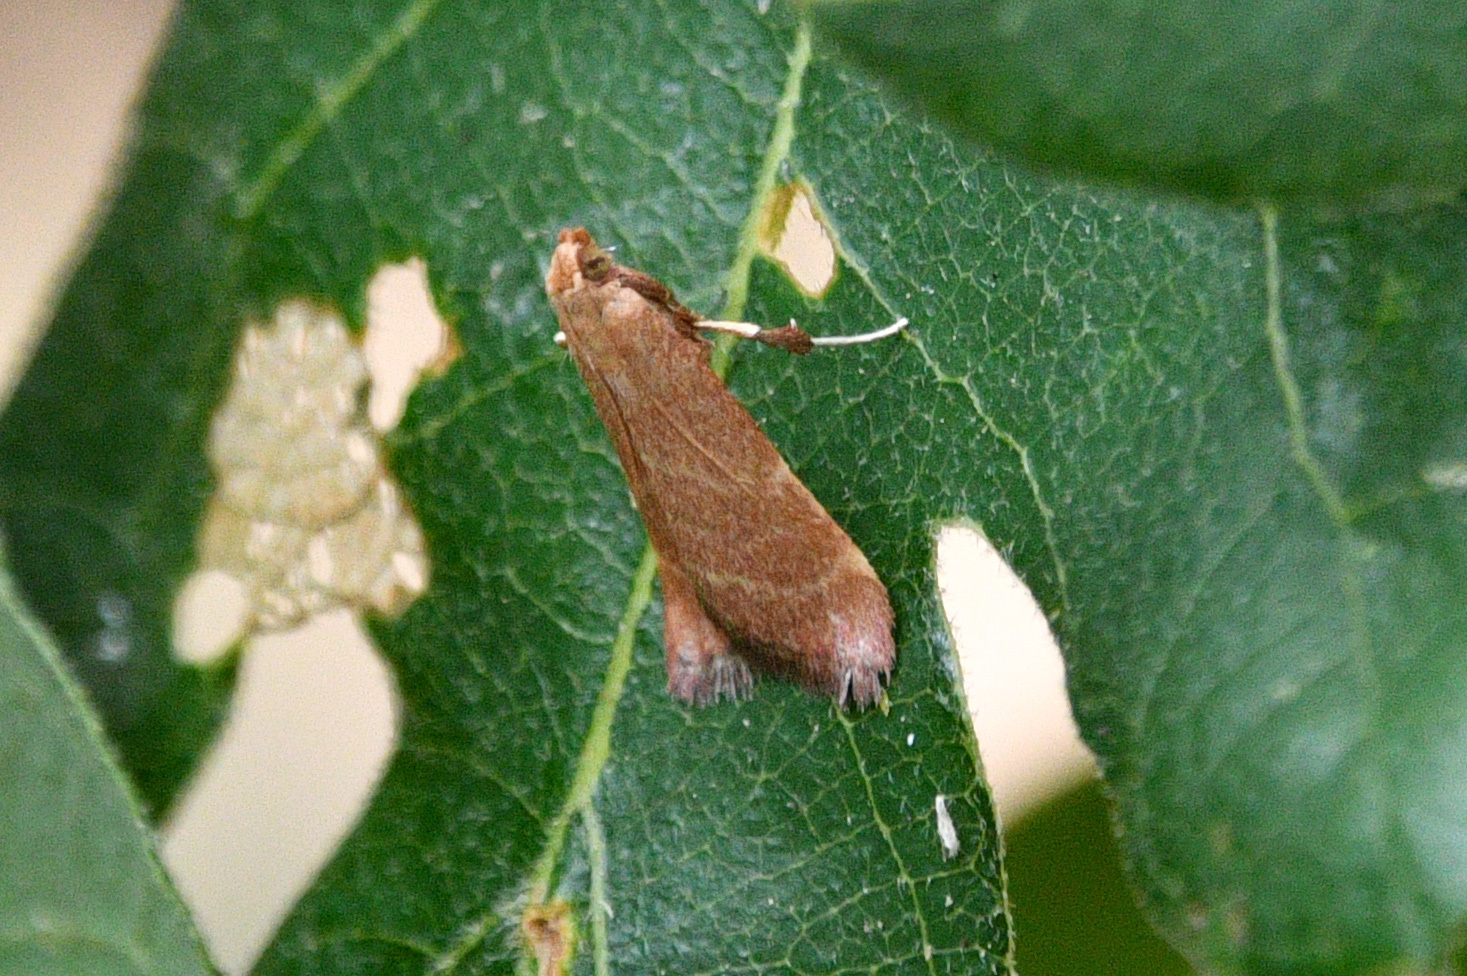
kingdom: Animalia
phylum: Arthropoda
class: Insecta
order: Lepidoptera
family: Pyralidae
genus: Arta
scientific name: Arta epicoenalis
